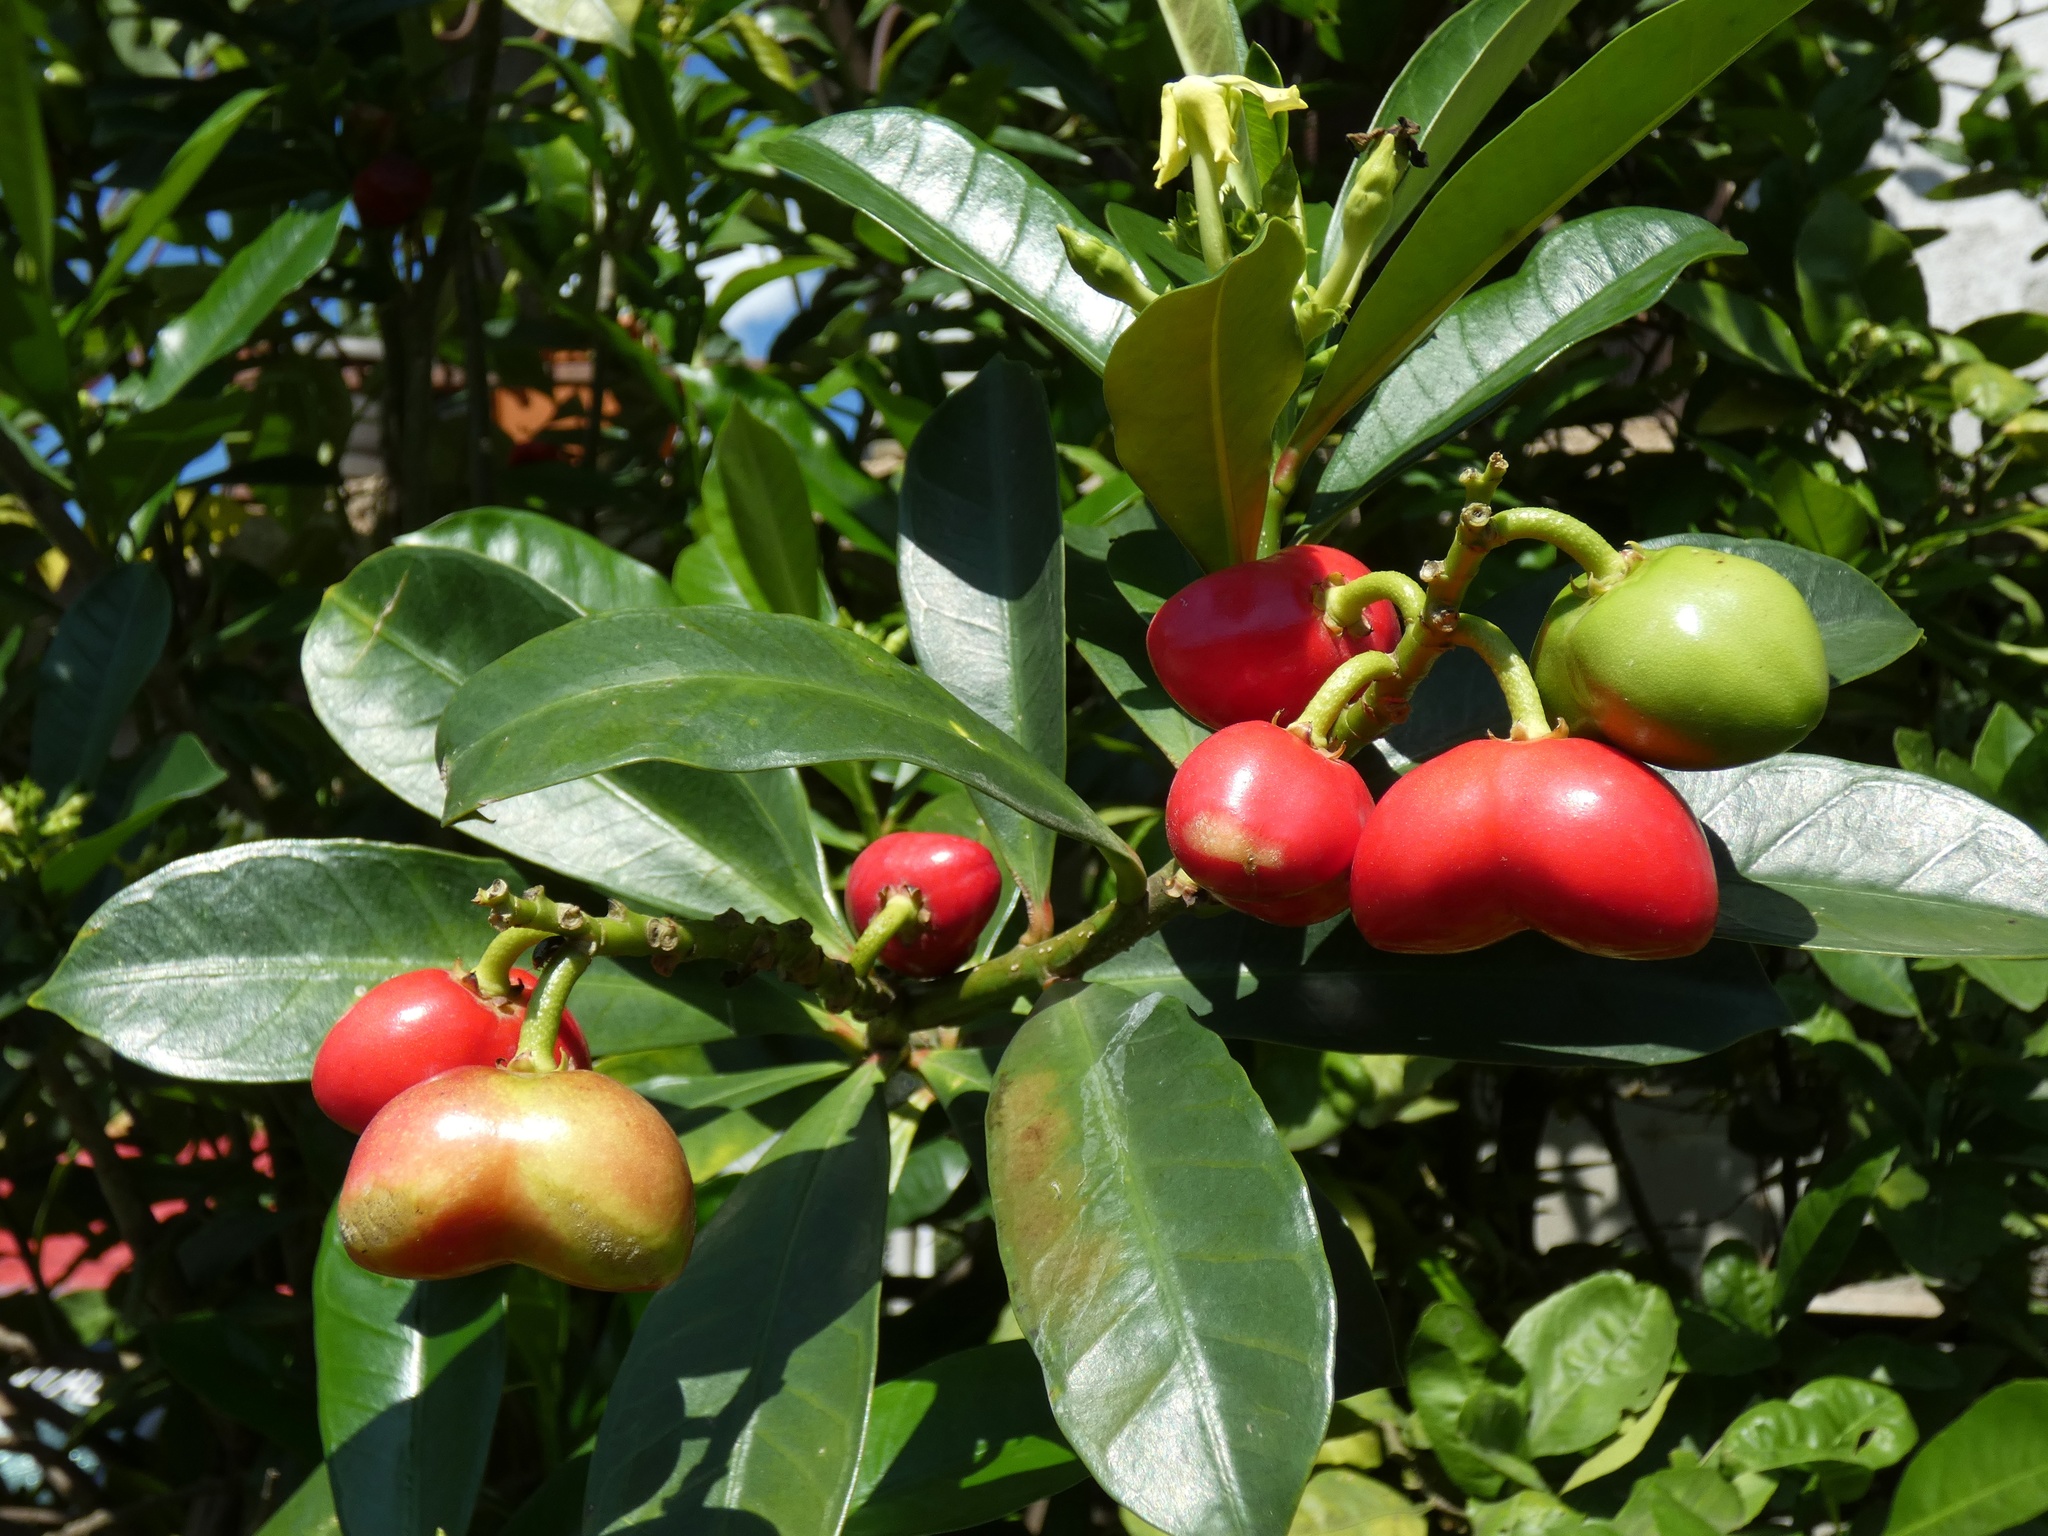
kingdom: Plantae
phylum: Tracheophyta
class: Magnoliopsida
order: Gentianales
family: Apocynaceae
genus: Thevetia
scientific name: Thevetia ahouai
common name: Broadleaf thevetia
